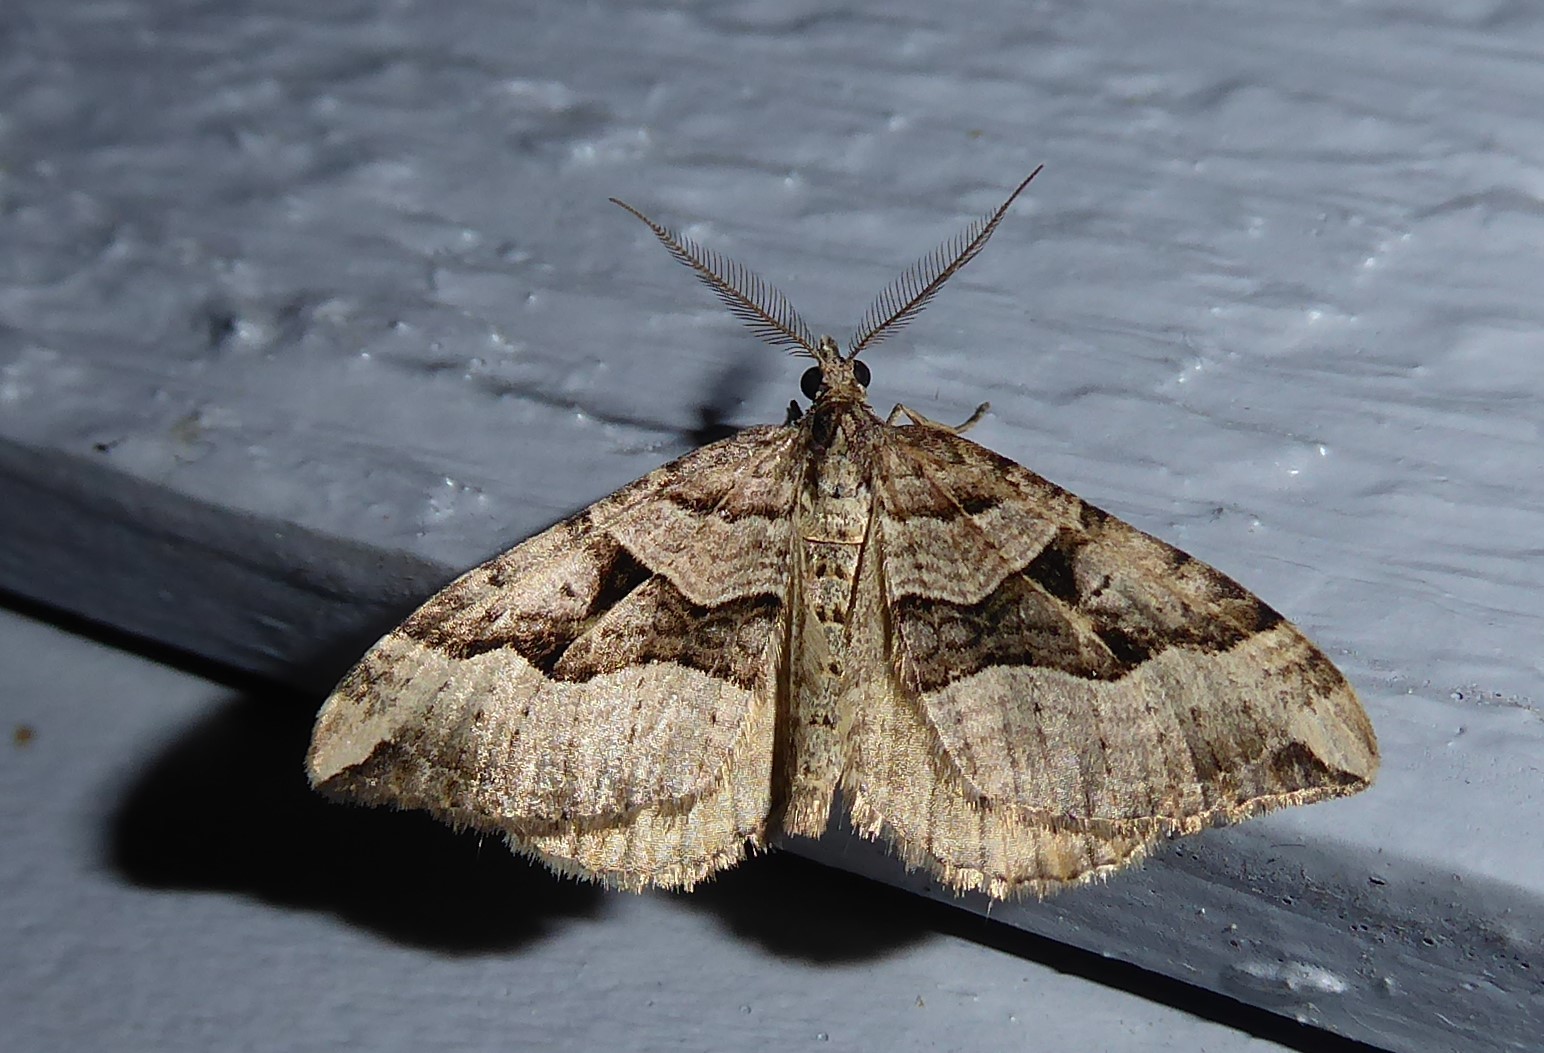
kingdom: Animalia
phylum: Arthropoda
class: Insecta
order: Lepidoptera
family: Geometridae
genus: Xanthorhoe
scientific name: Xanthorhoe semifissata
